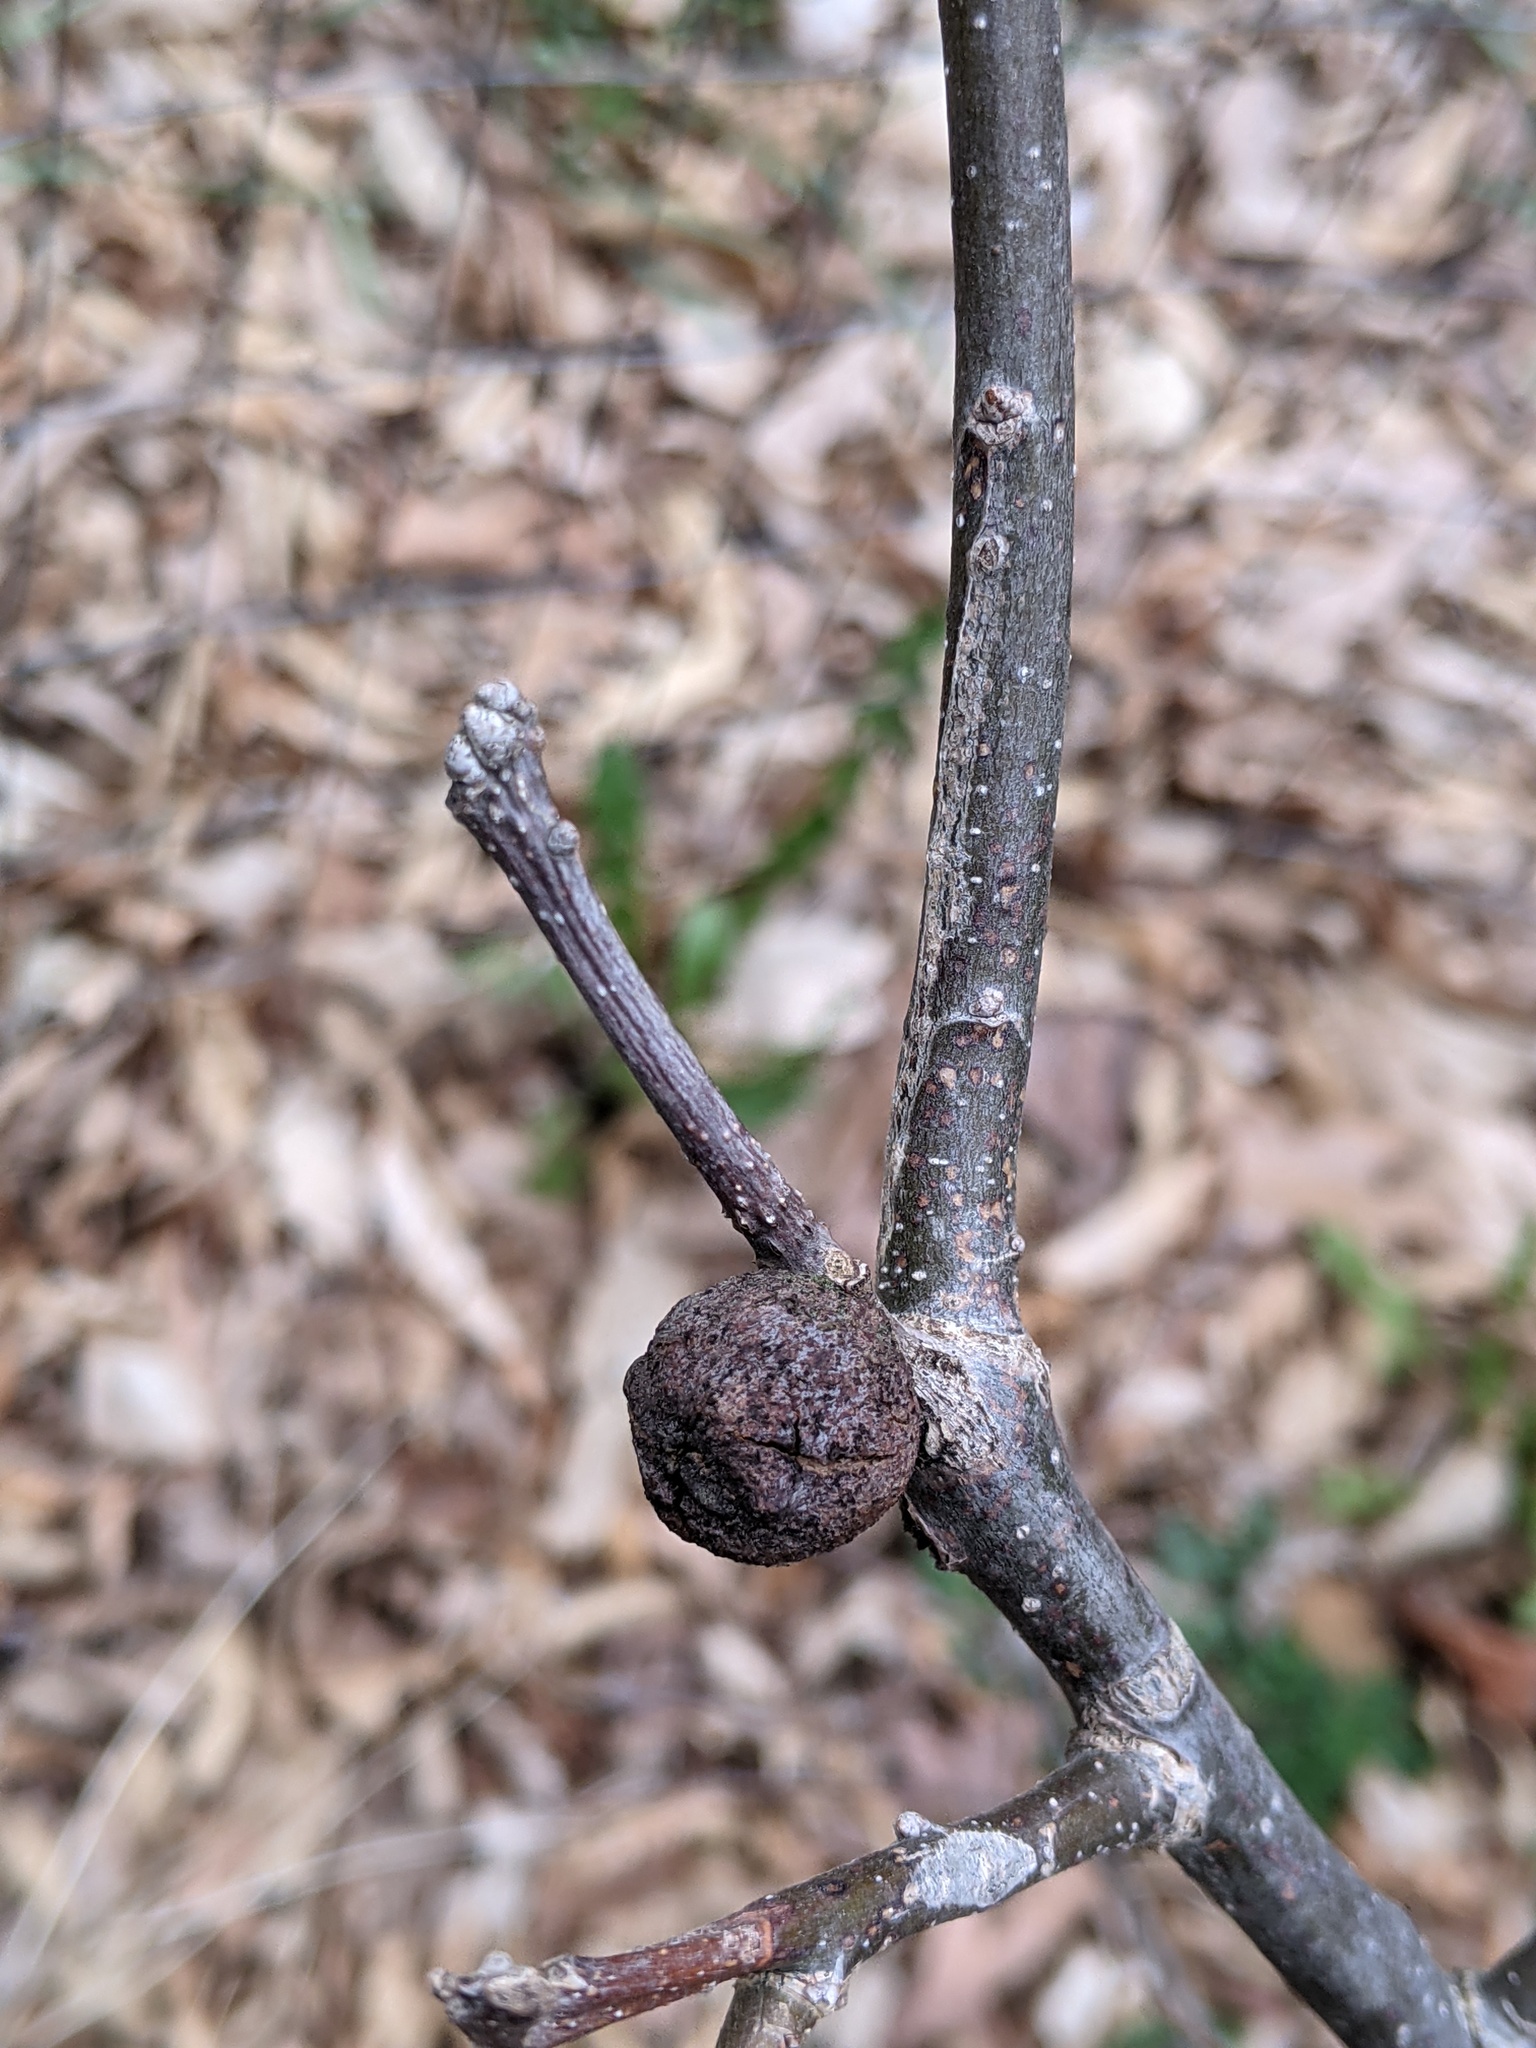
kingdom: Animalia
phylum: Arthropoda
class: Insecta
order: Hymenoptera
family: Cynipidae
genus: Disholcaspis
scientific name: Disholcaspis
